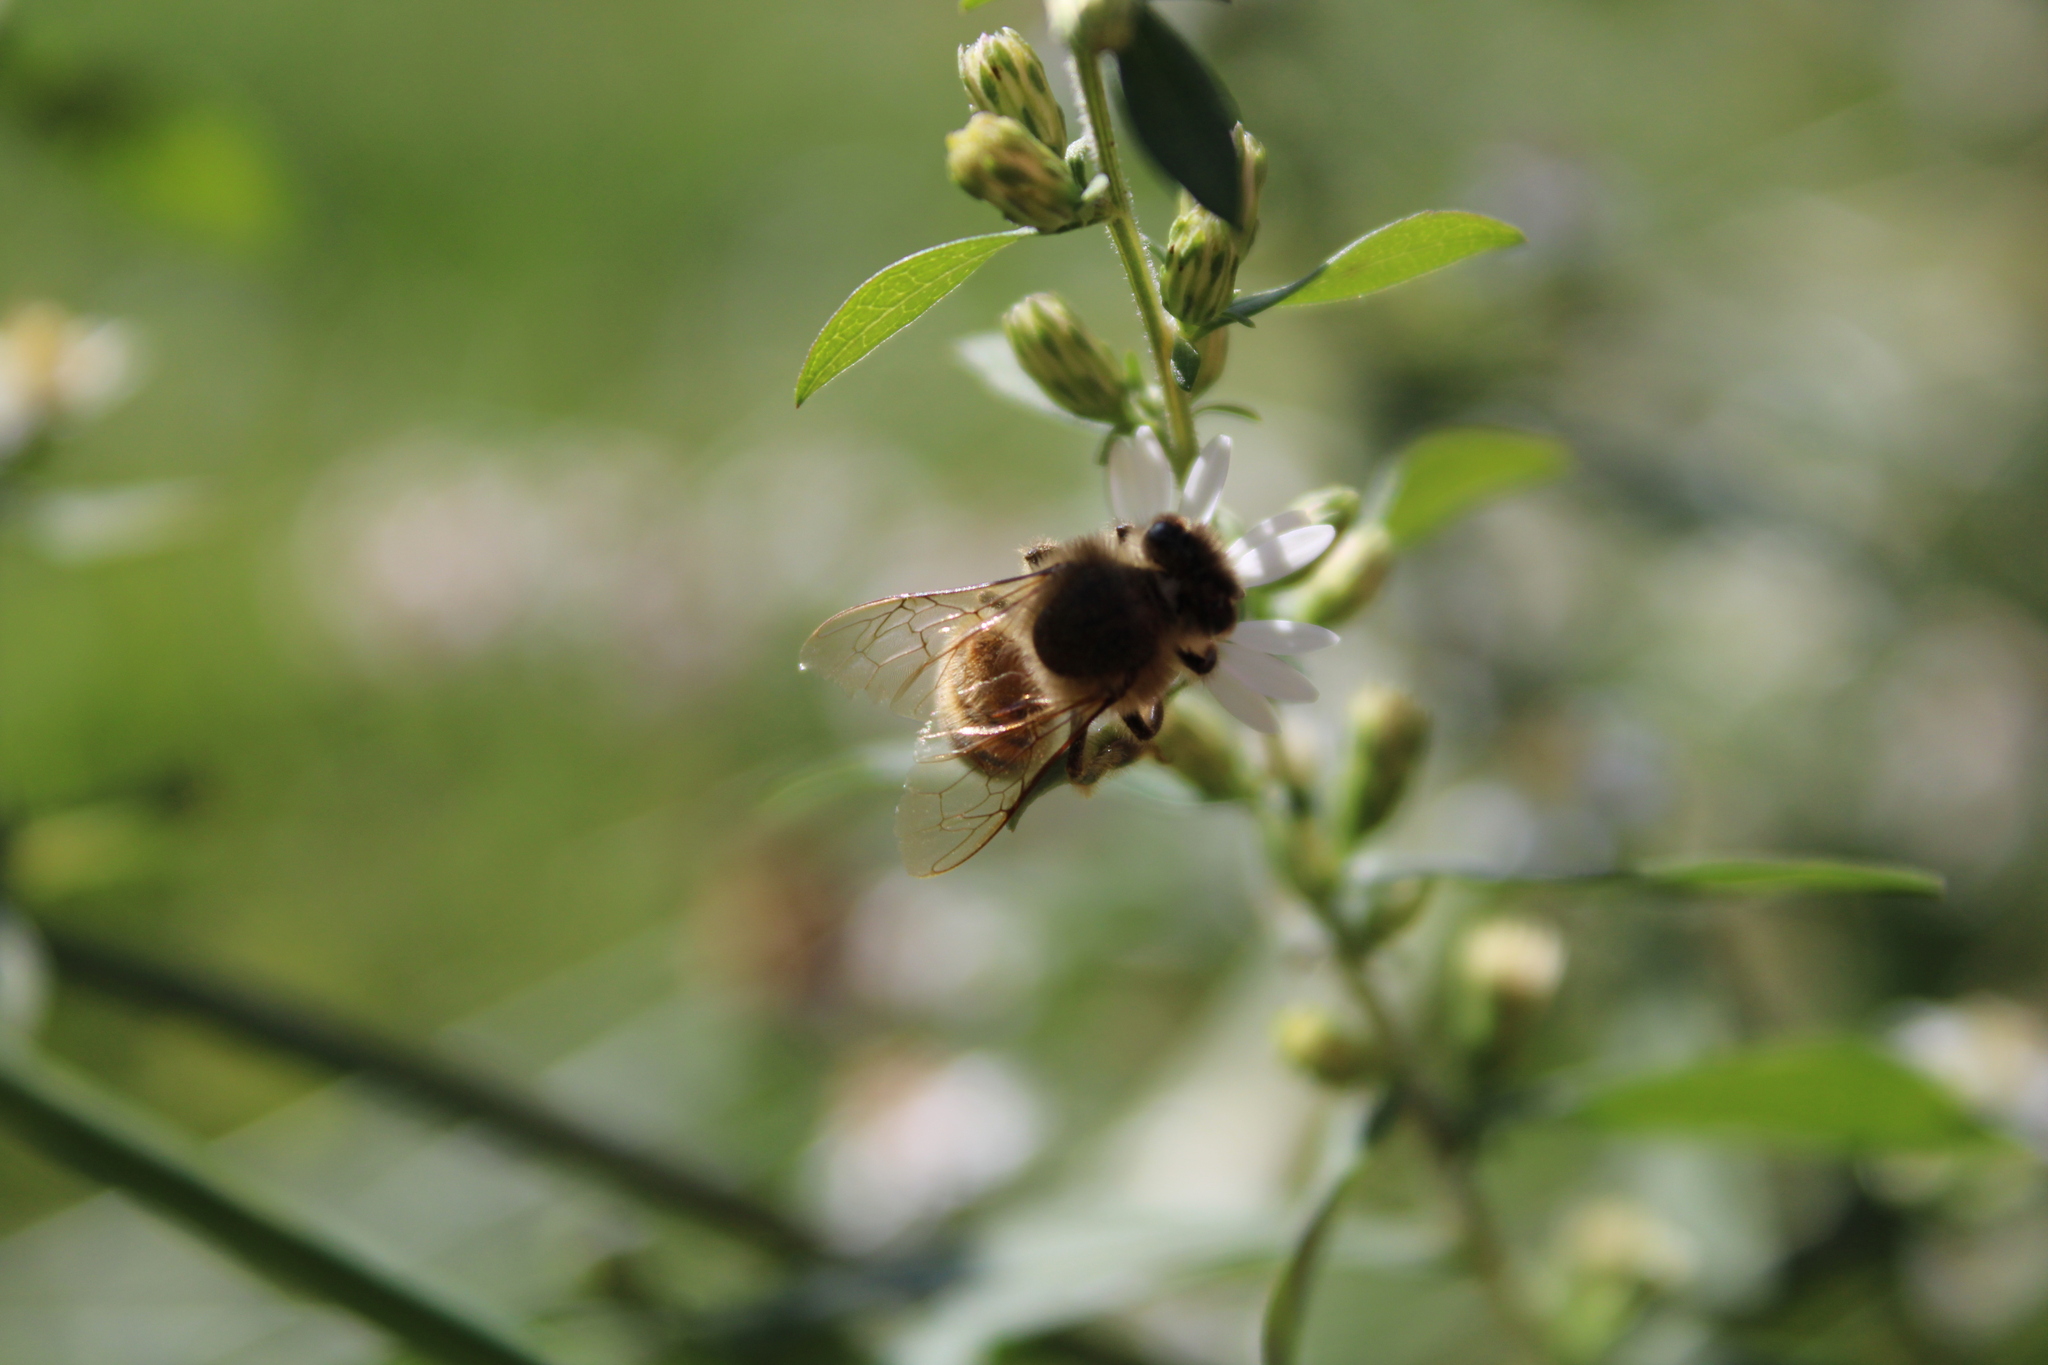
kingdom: Animalia
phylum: Arthropoda
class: Insecta
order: Hymenoptera
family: Apidae
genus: Apis
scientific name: Apis mellifera
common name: Honey bee
